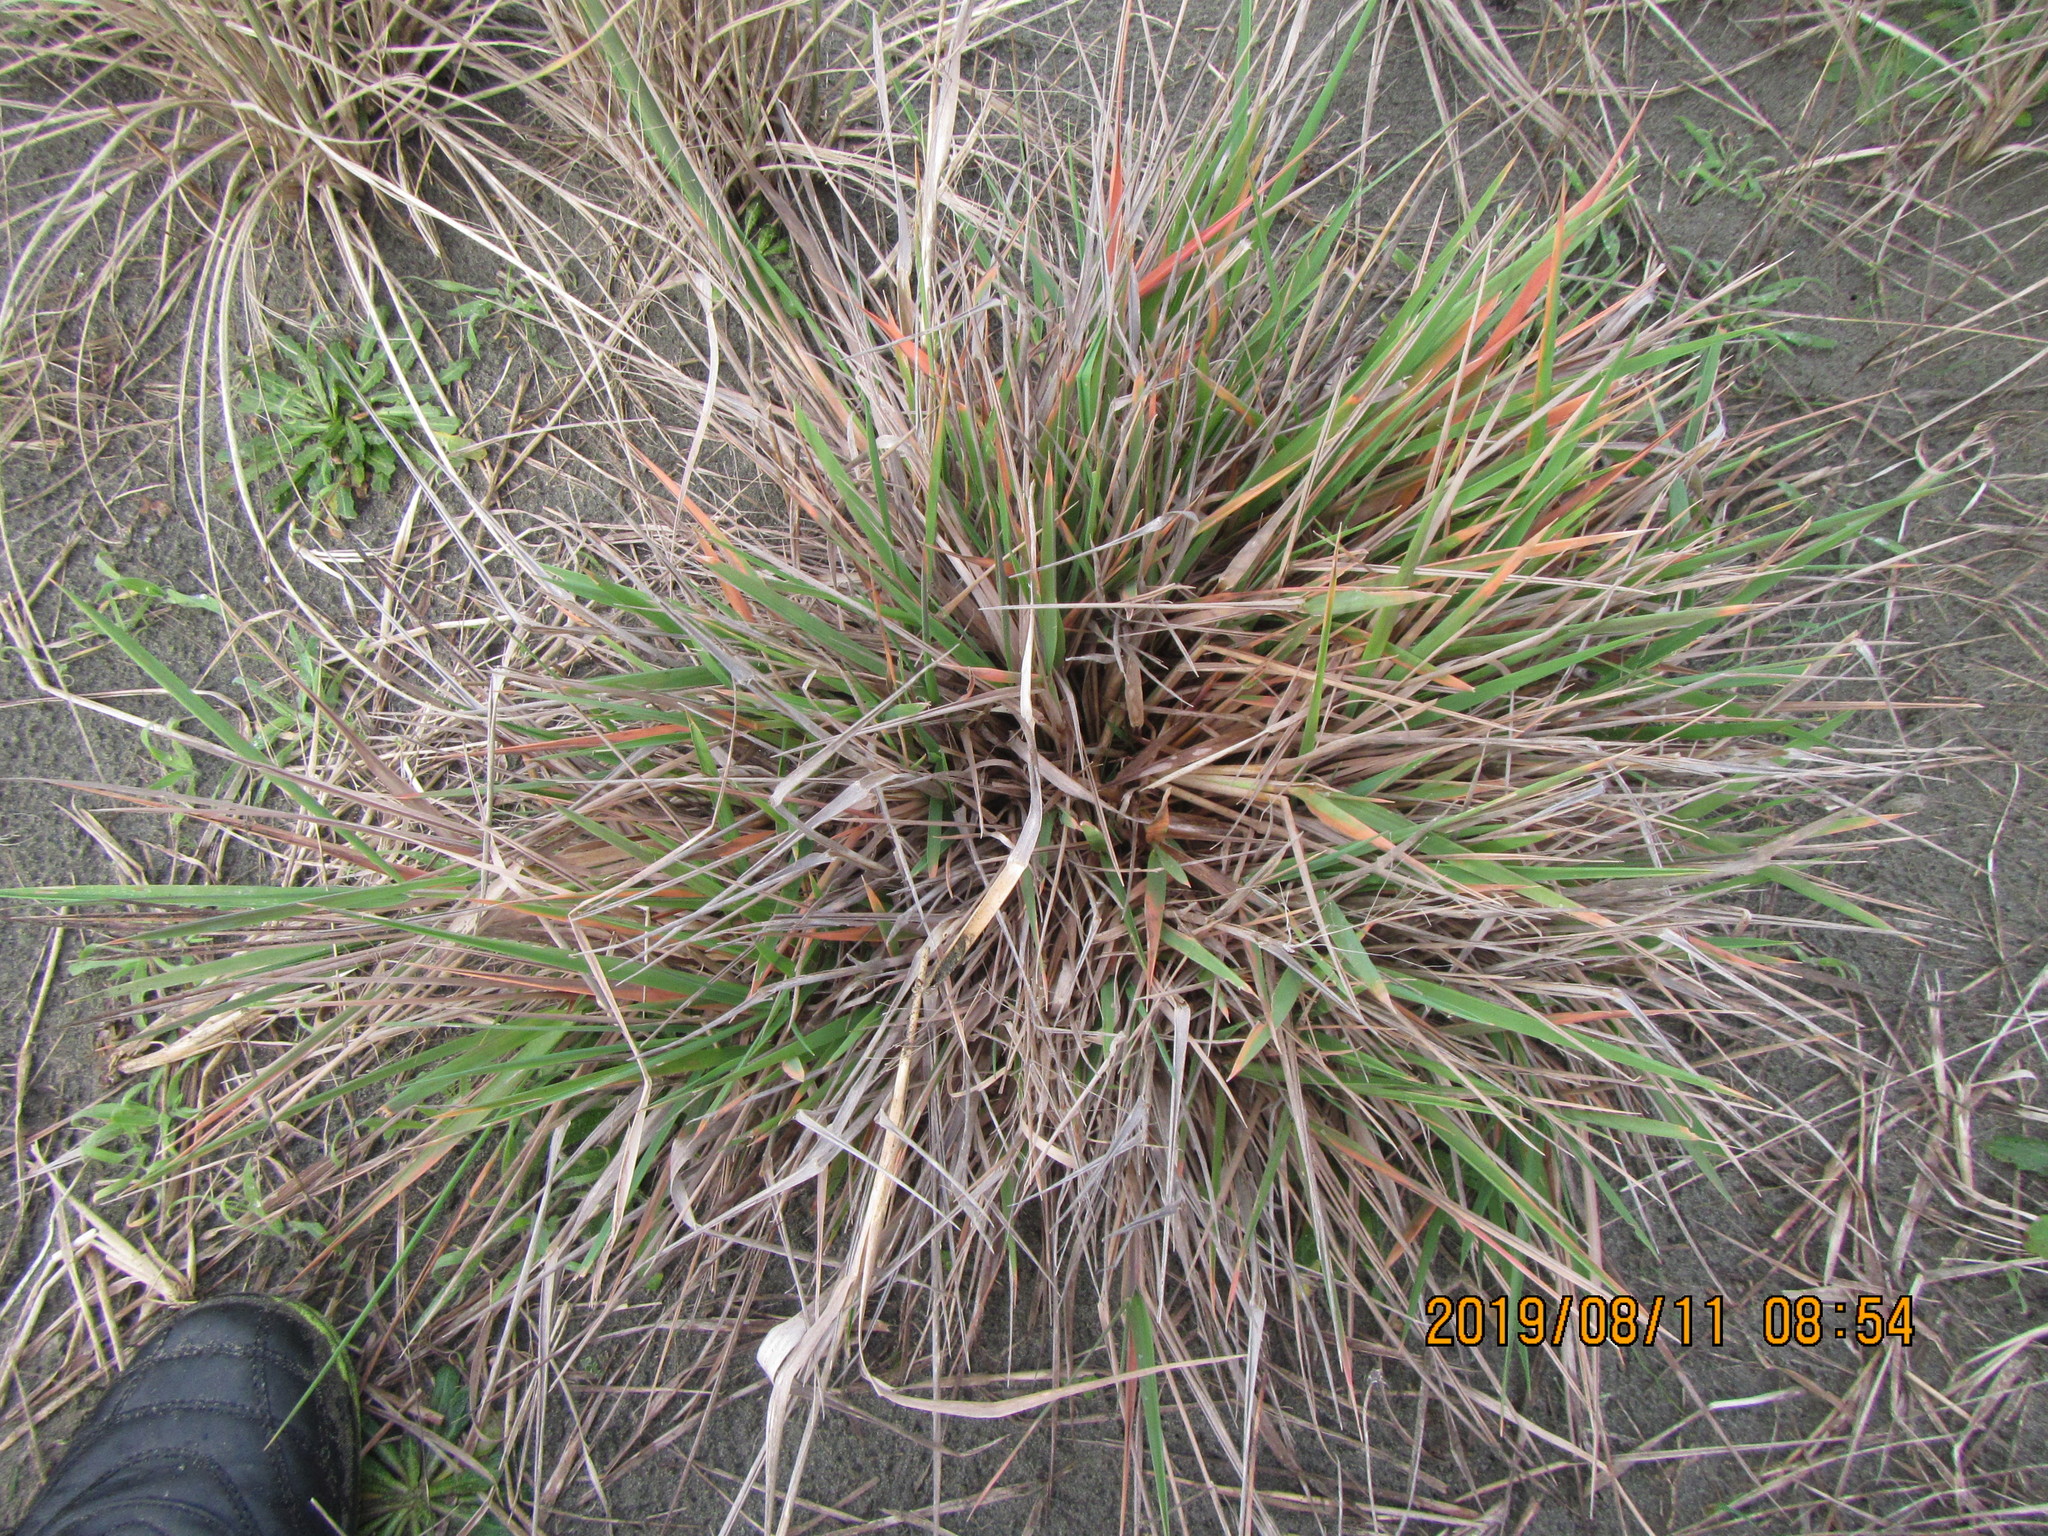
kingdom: Plantae
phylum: Tracheophyta
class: Liliopsida
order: Poales
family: Poaceae
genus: Lachnagrostis
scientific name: Lachnagrostis billardierei
